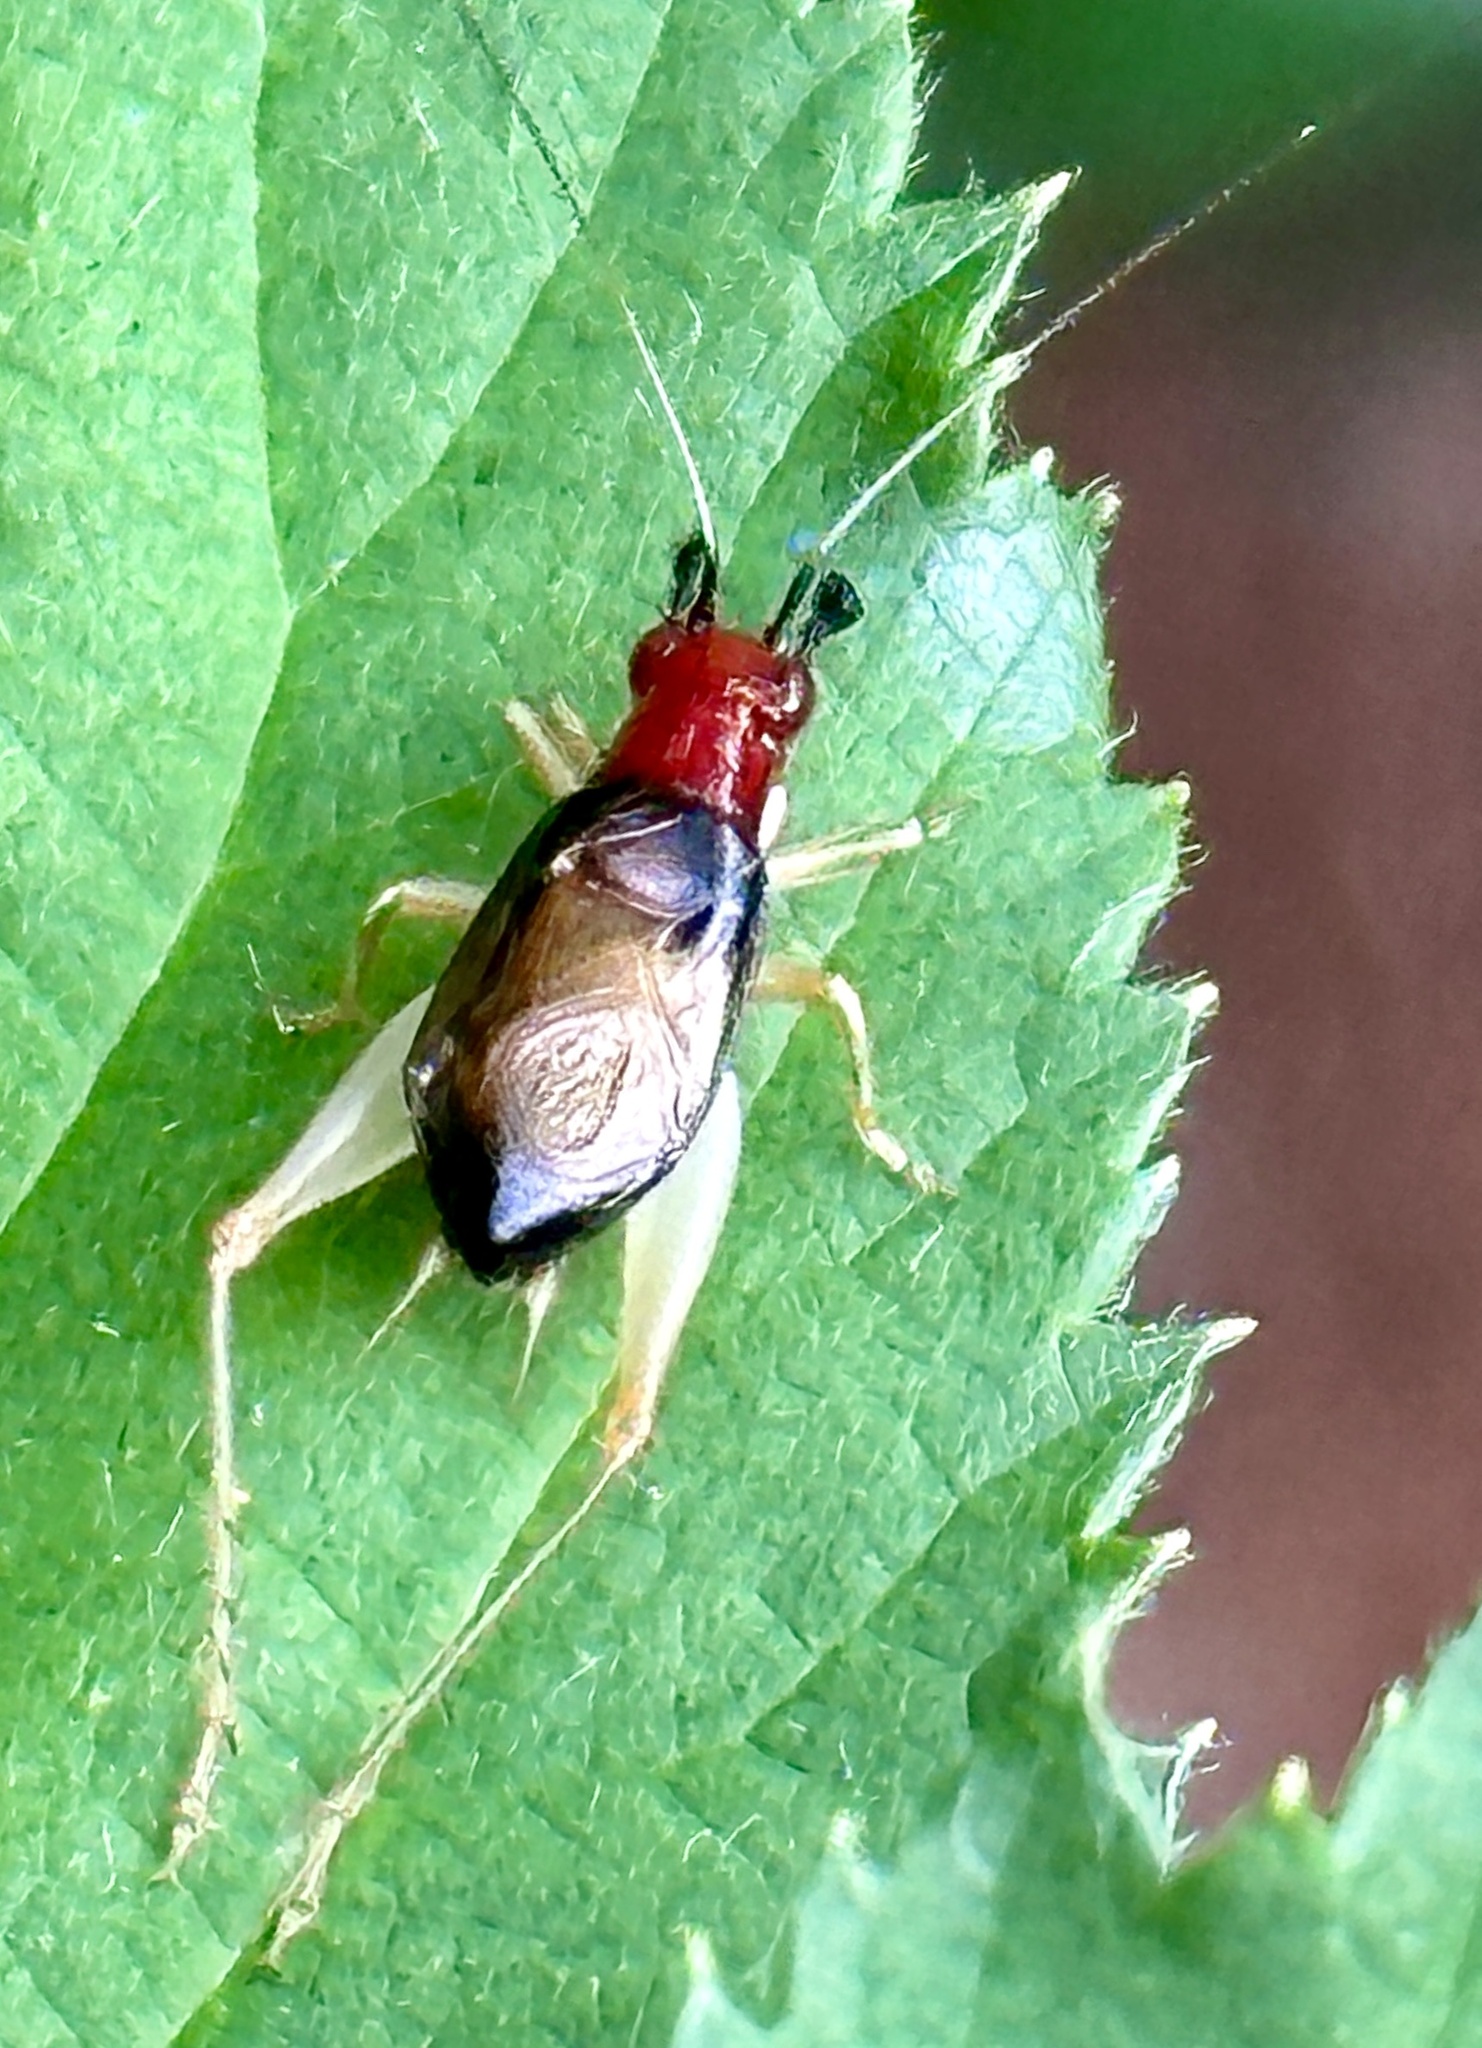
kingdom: Animalia
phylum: Arthropoda
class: Insecta
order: Orthoptera
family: Trigonidiidae
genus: Phyllopalpus
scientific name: Phyllopalpus pulchellus
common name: Handsome trig
